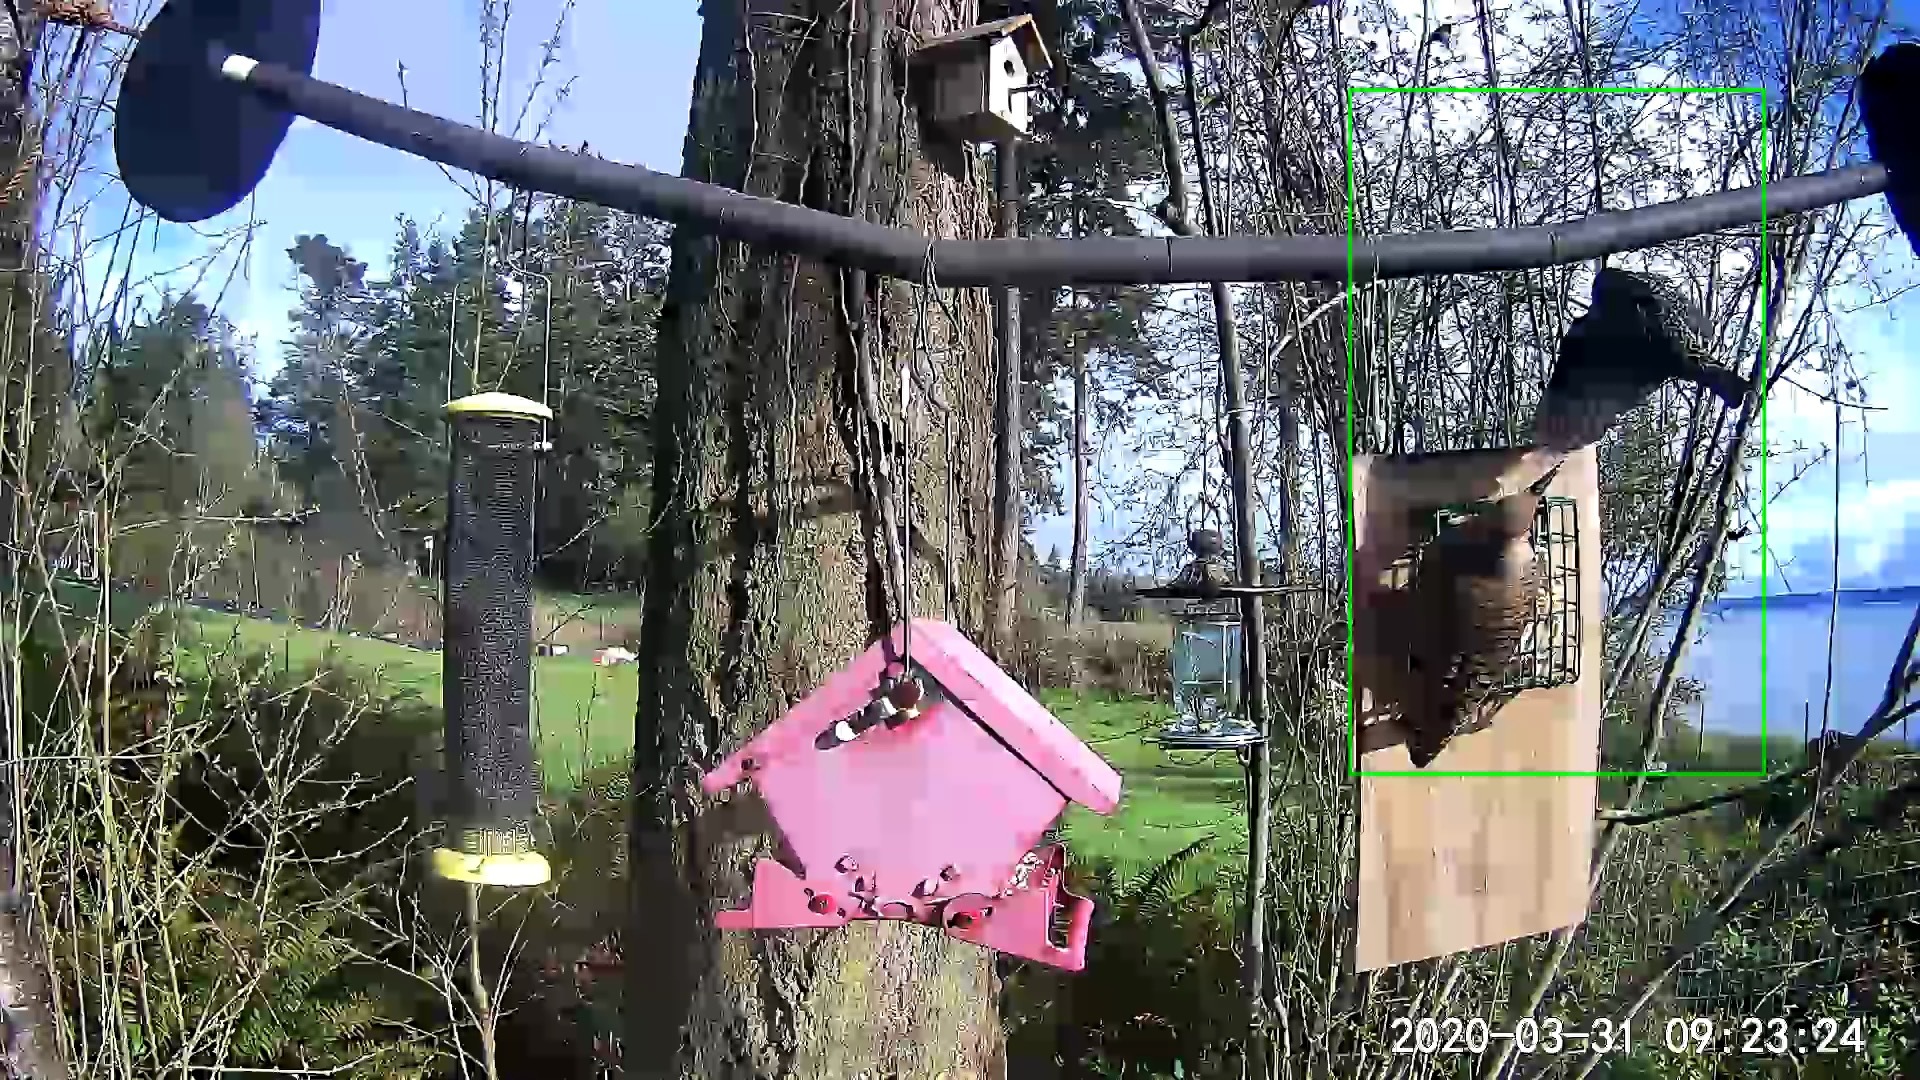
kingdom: Animalia
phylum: Chordata
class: Aves
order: Piciformes
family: Picidae
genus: Colaptes
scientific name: Colaptes auratus
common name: Northern flicker
